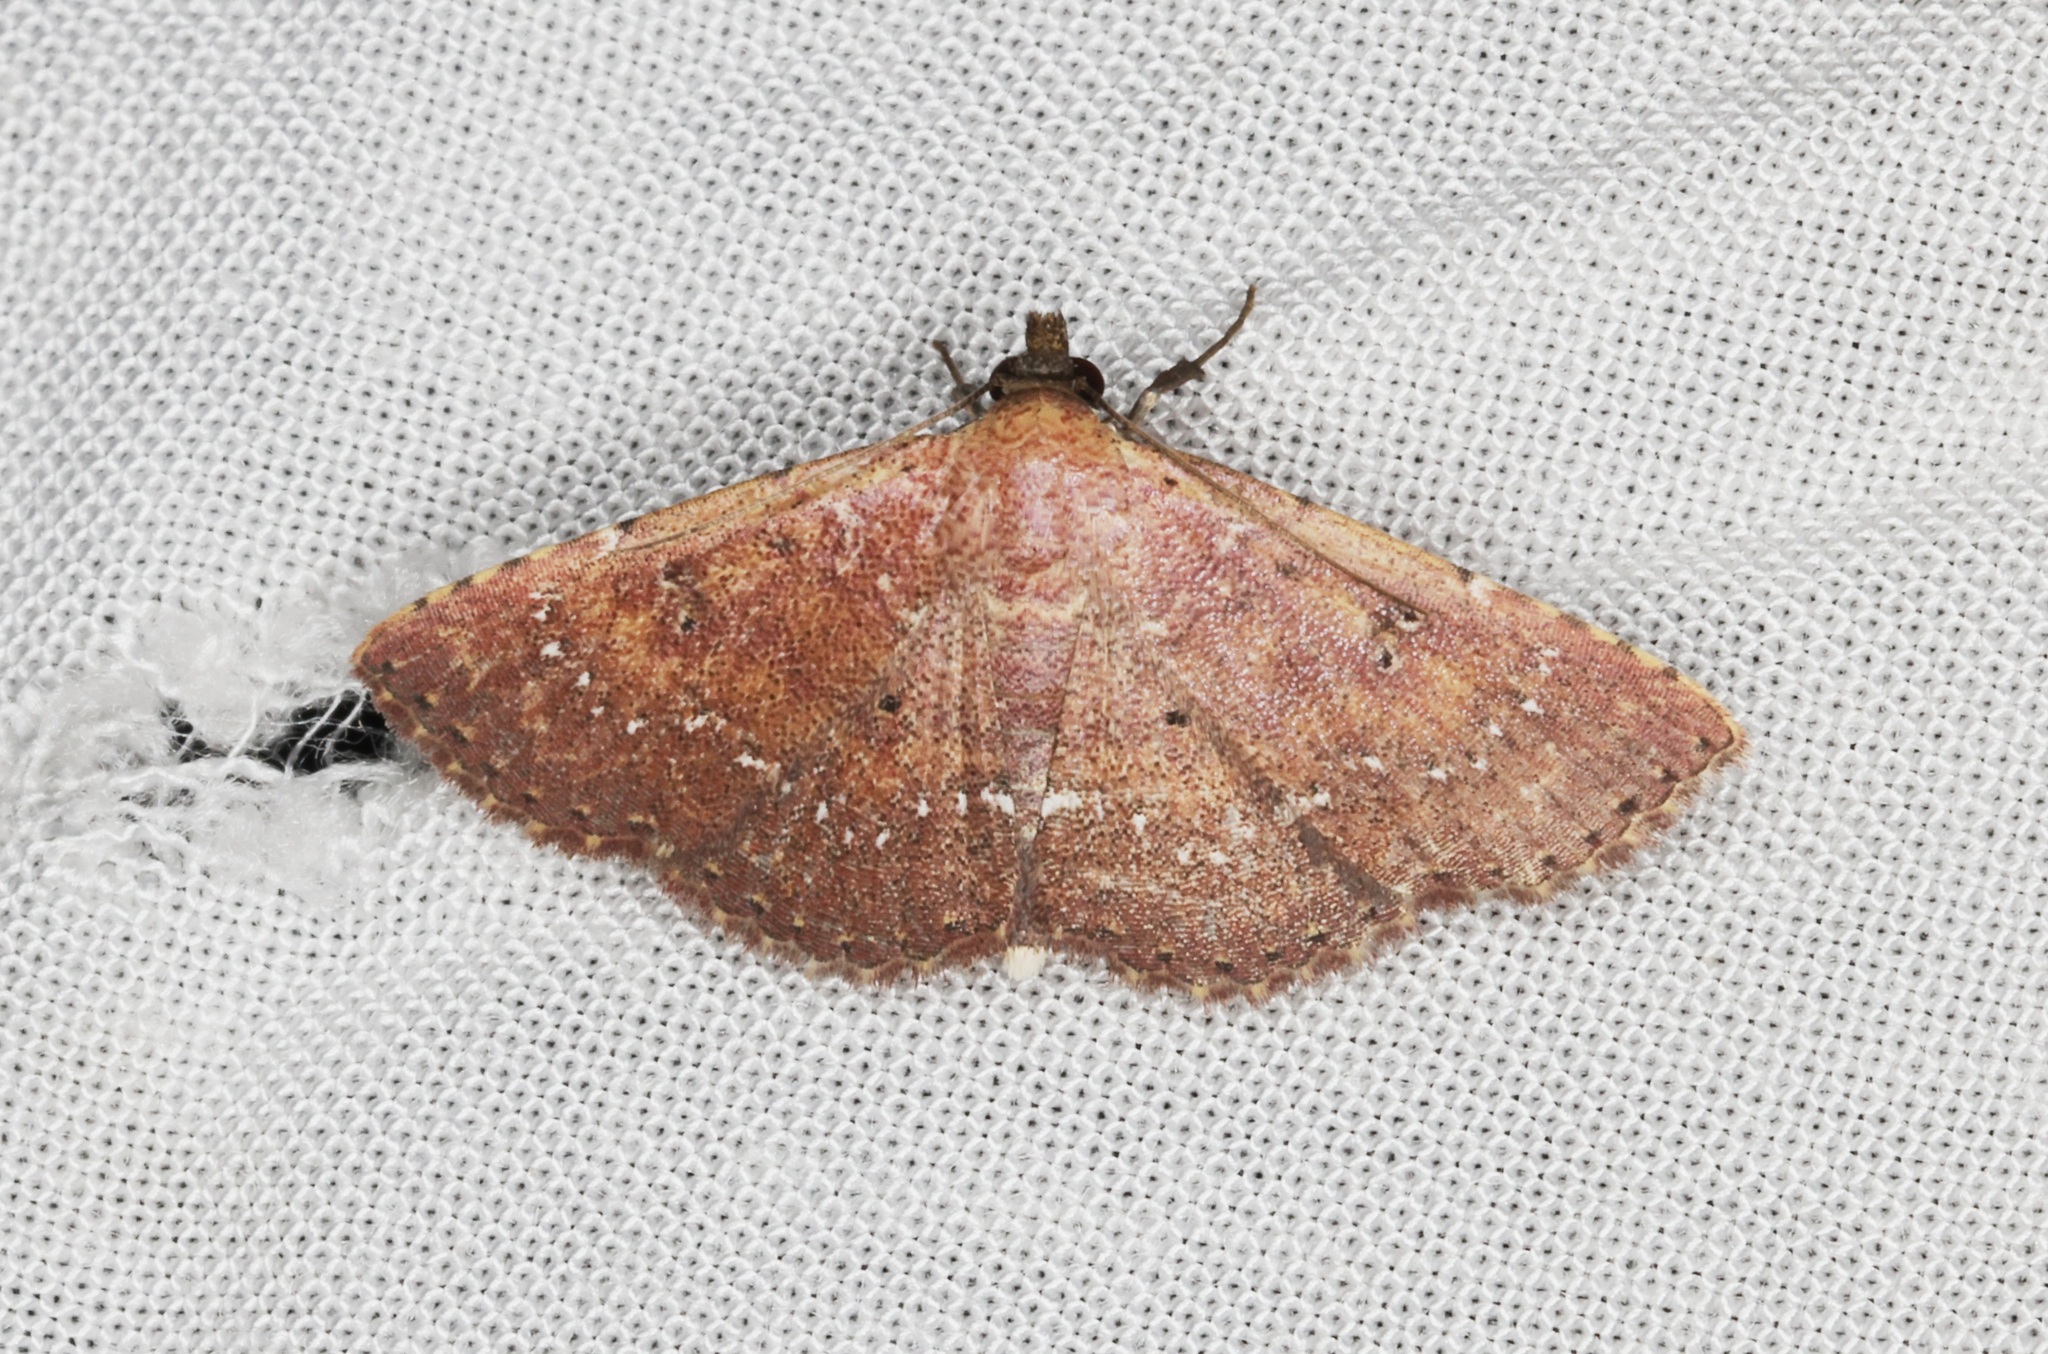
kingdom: Animalia
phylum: Arthropoda
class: Insecta
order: Lepidoptera
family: Noctuidae
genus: Cerynea
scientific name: Cerynea punctilinealis
